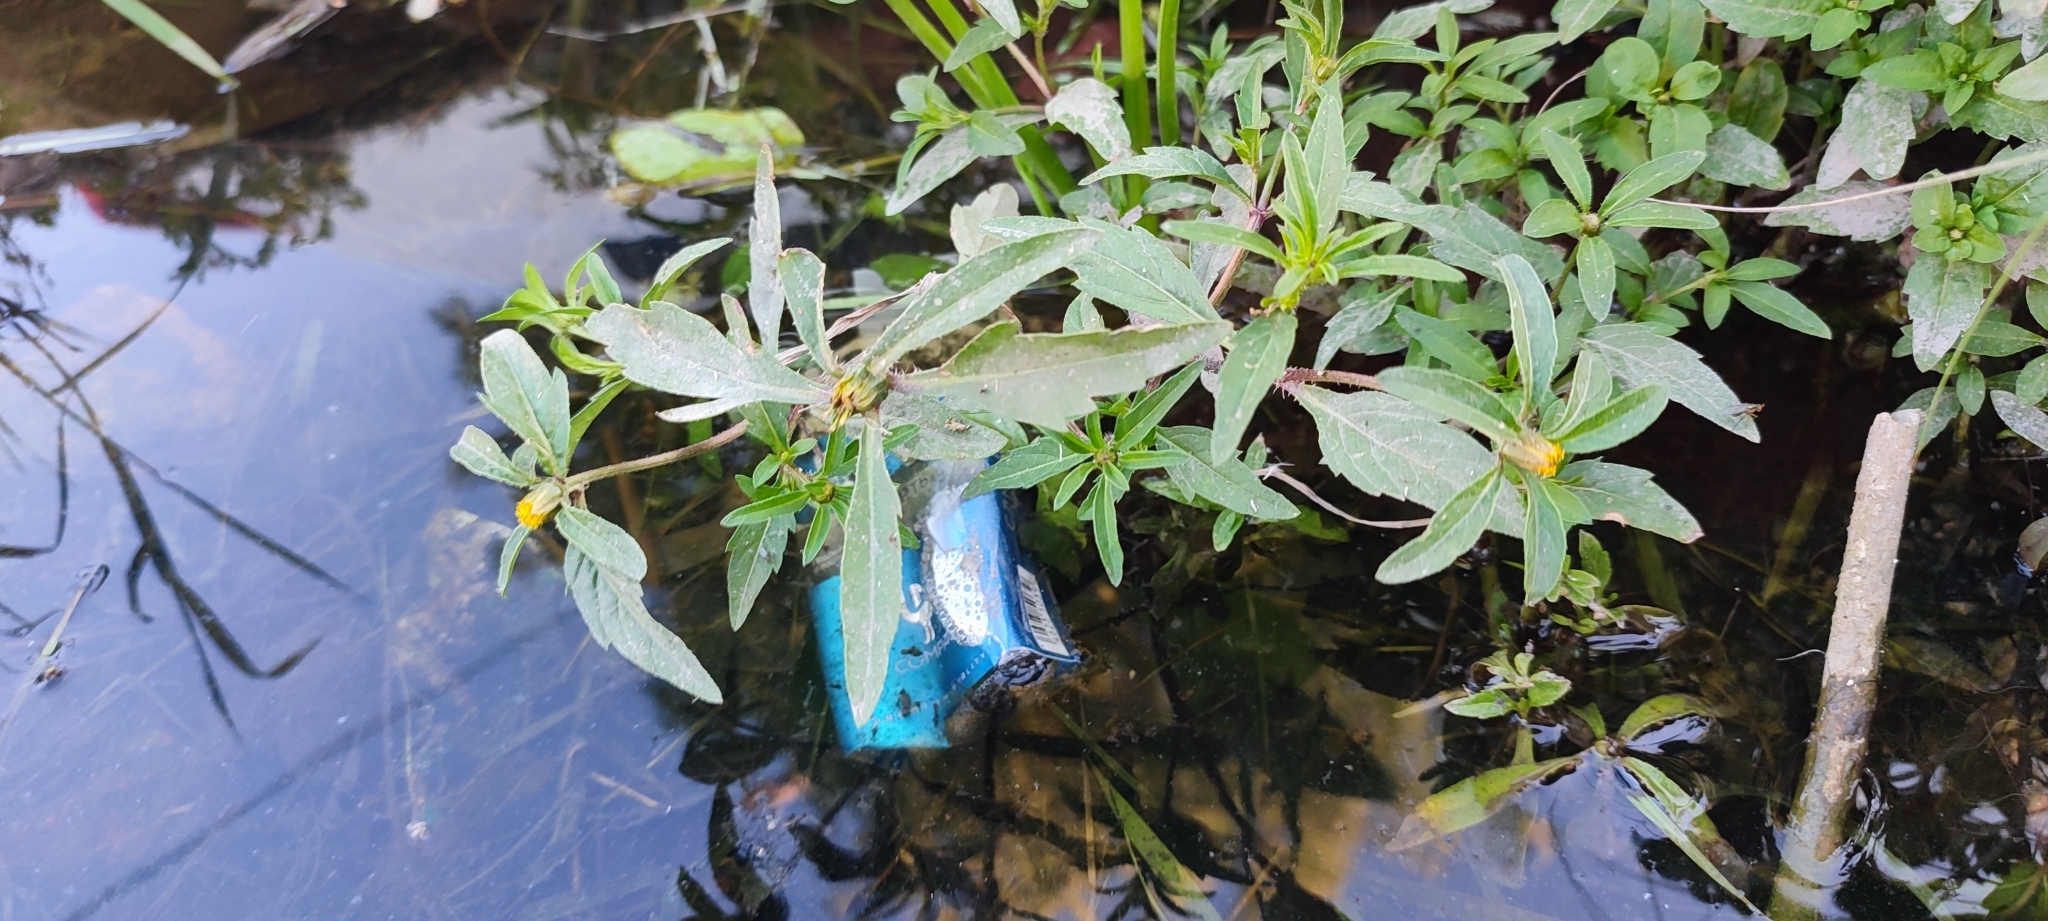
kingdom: Plantae
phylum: Tracheophyta
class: Magnoliopsida
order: Asterales
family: Asteraceae
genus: Bidens
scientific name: Bidens tripartita
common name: Trifid bur-marigold
